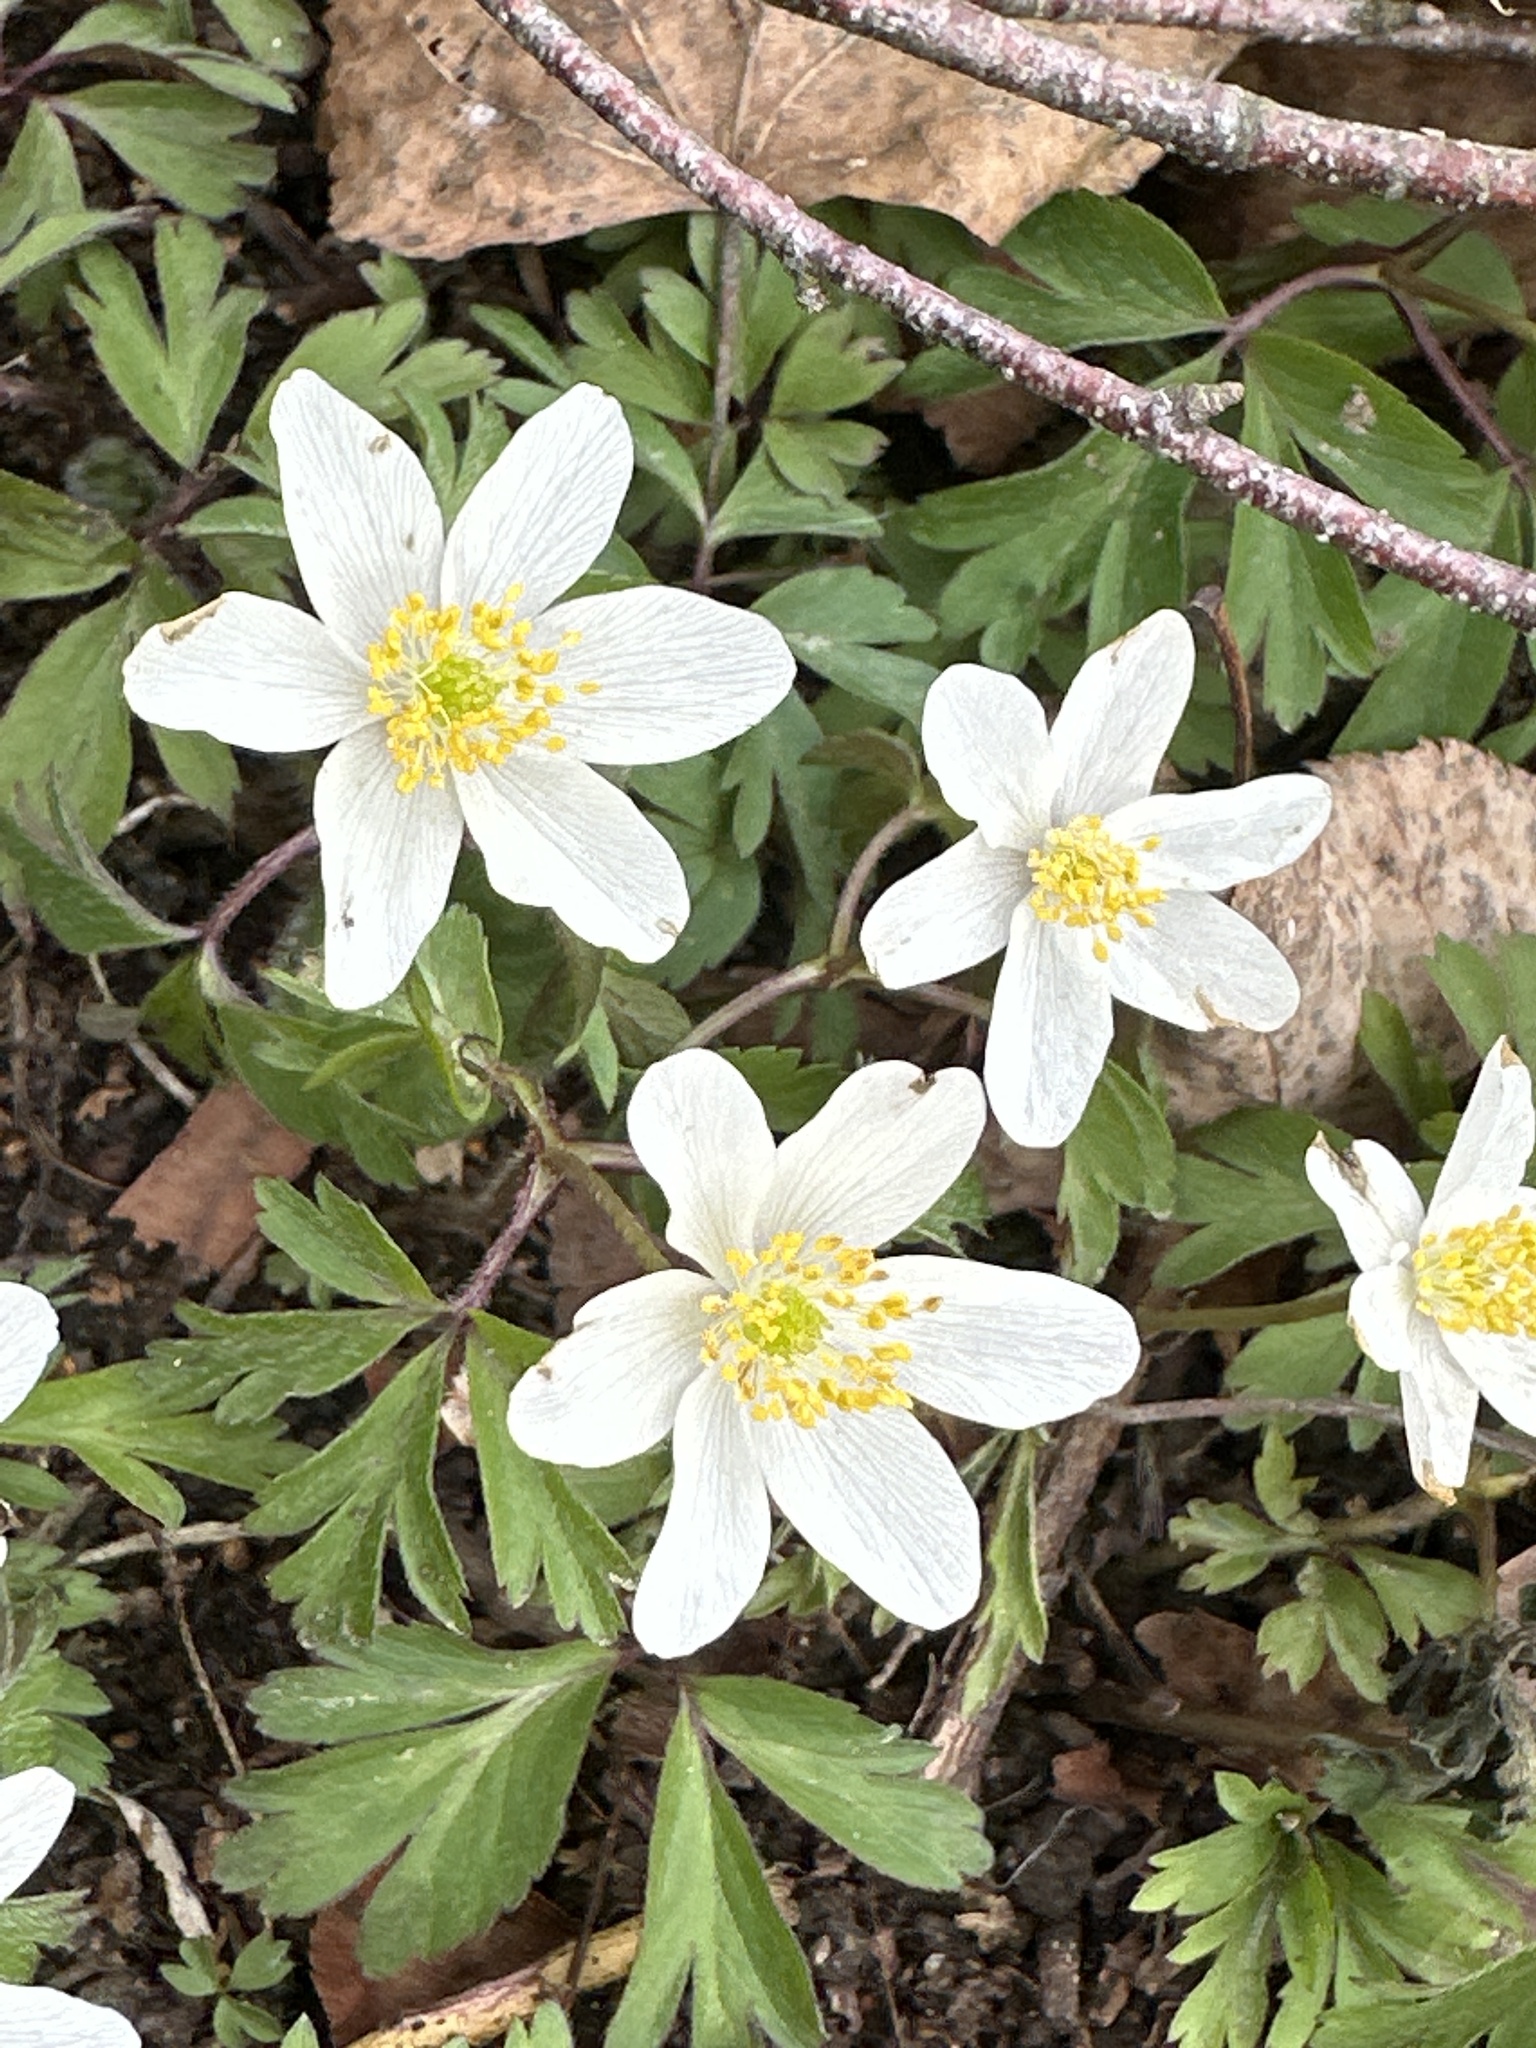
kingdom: Plantae
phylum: Tracheophyta
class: Magnoliopsida
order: Ranunculales
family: Ranunculaceae
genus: Anemone
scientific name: Anemone nemorosa
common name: Wood anemone
